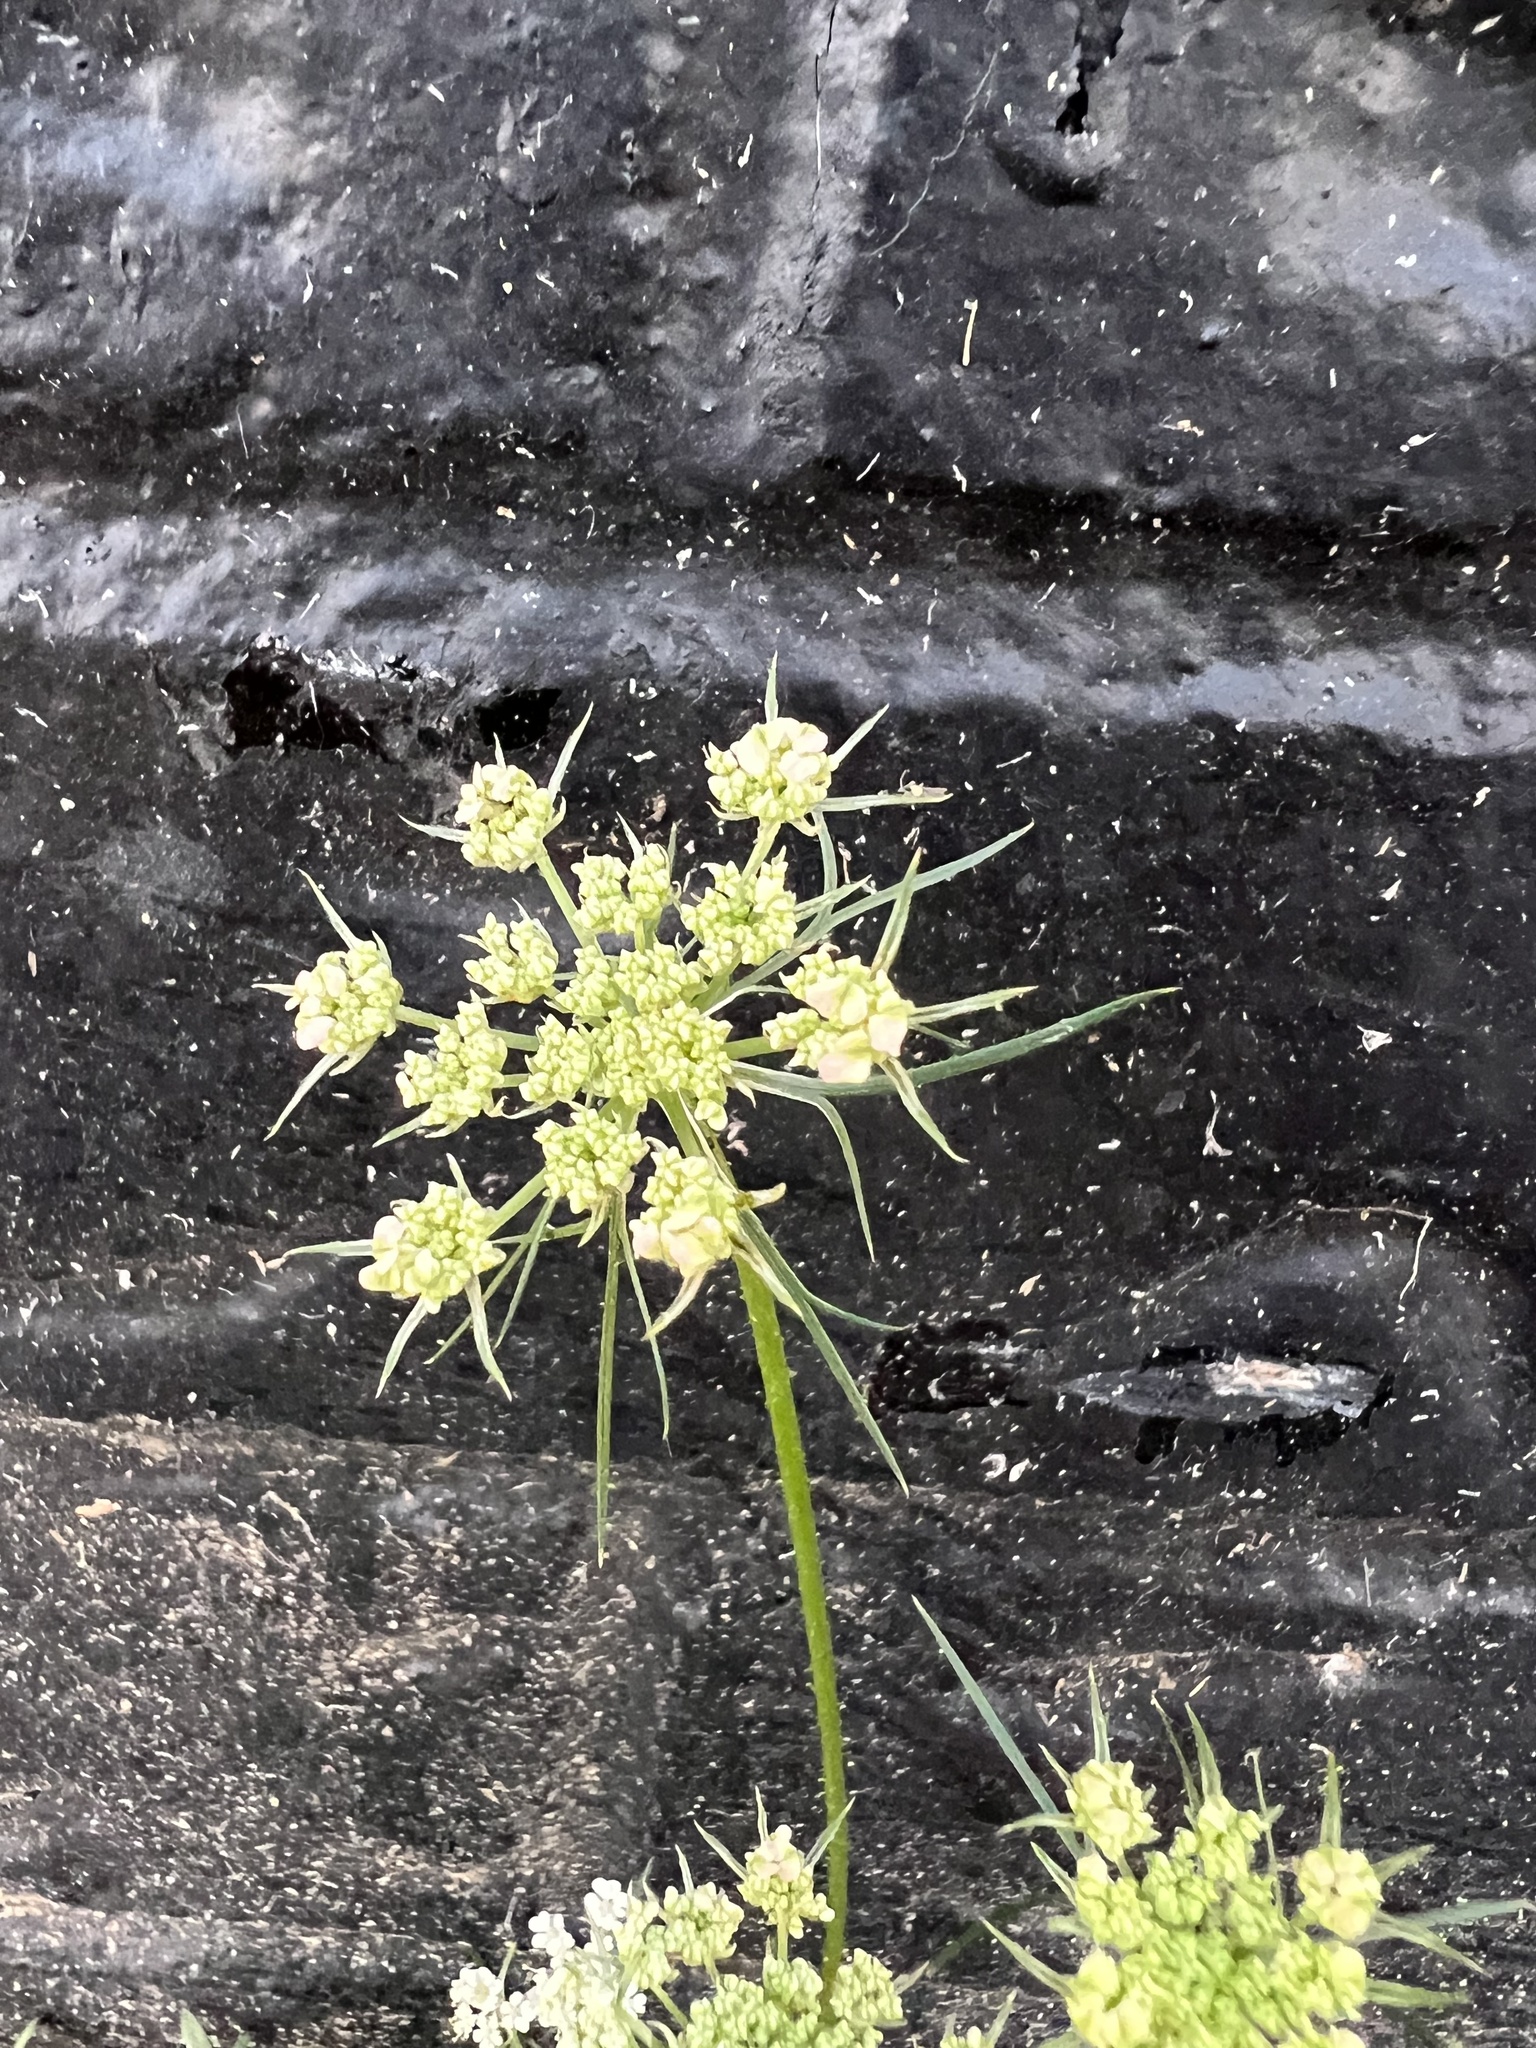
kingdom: Plantae
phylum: Tracheophyta
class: Magnoliopsida
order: Apiales
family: Apiaceae
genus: Daucus
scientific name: Daucus carota
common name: Wild carrot
